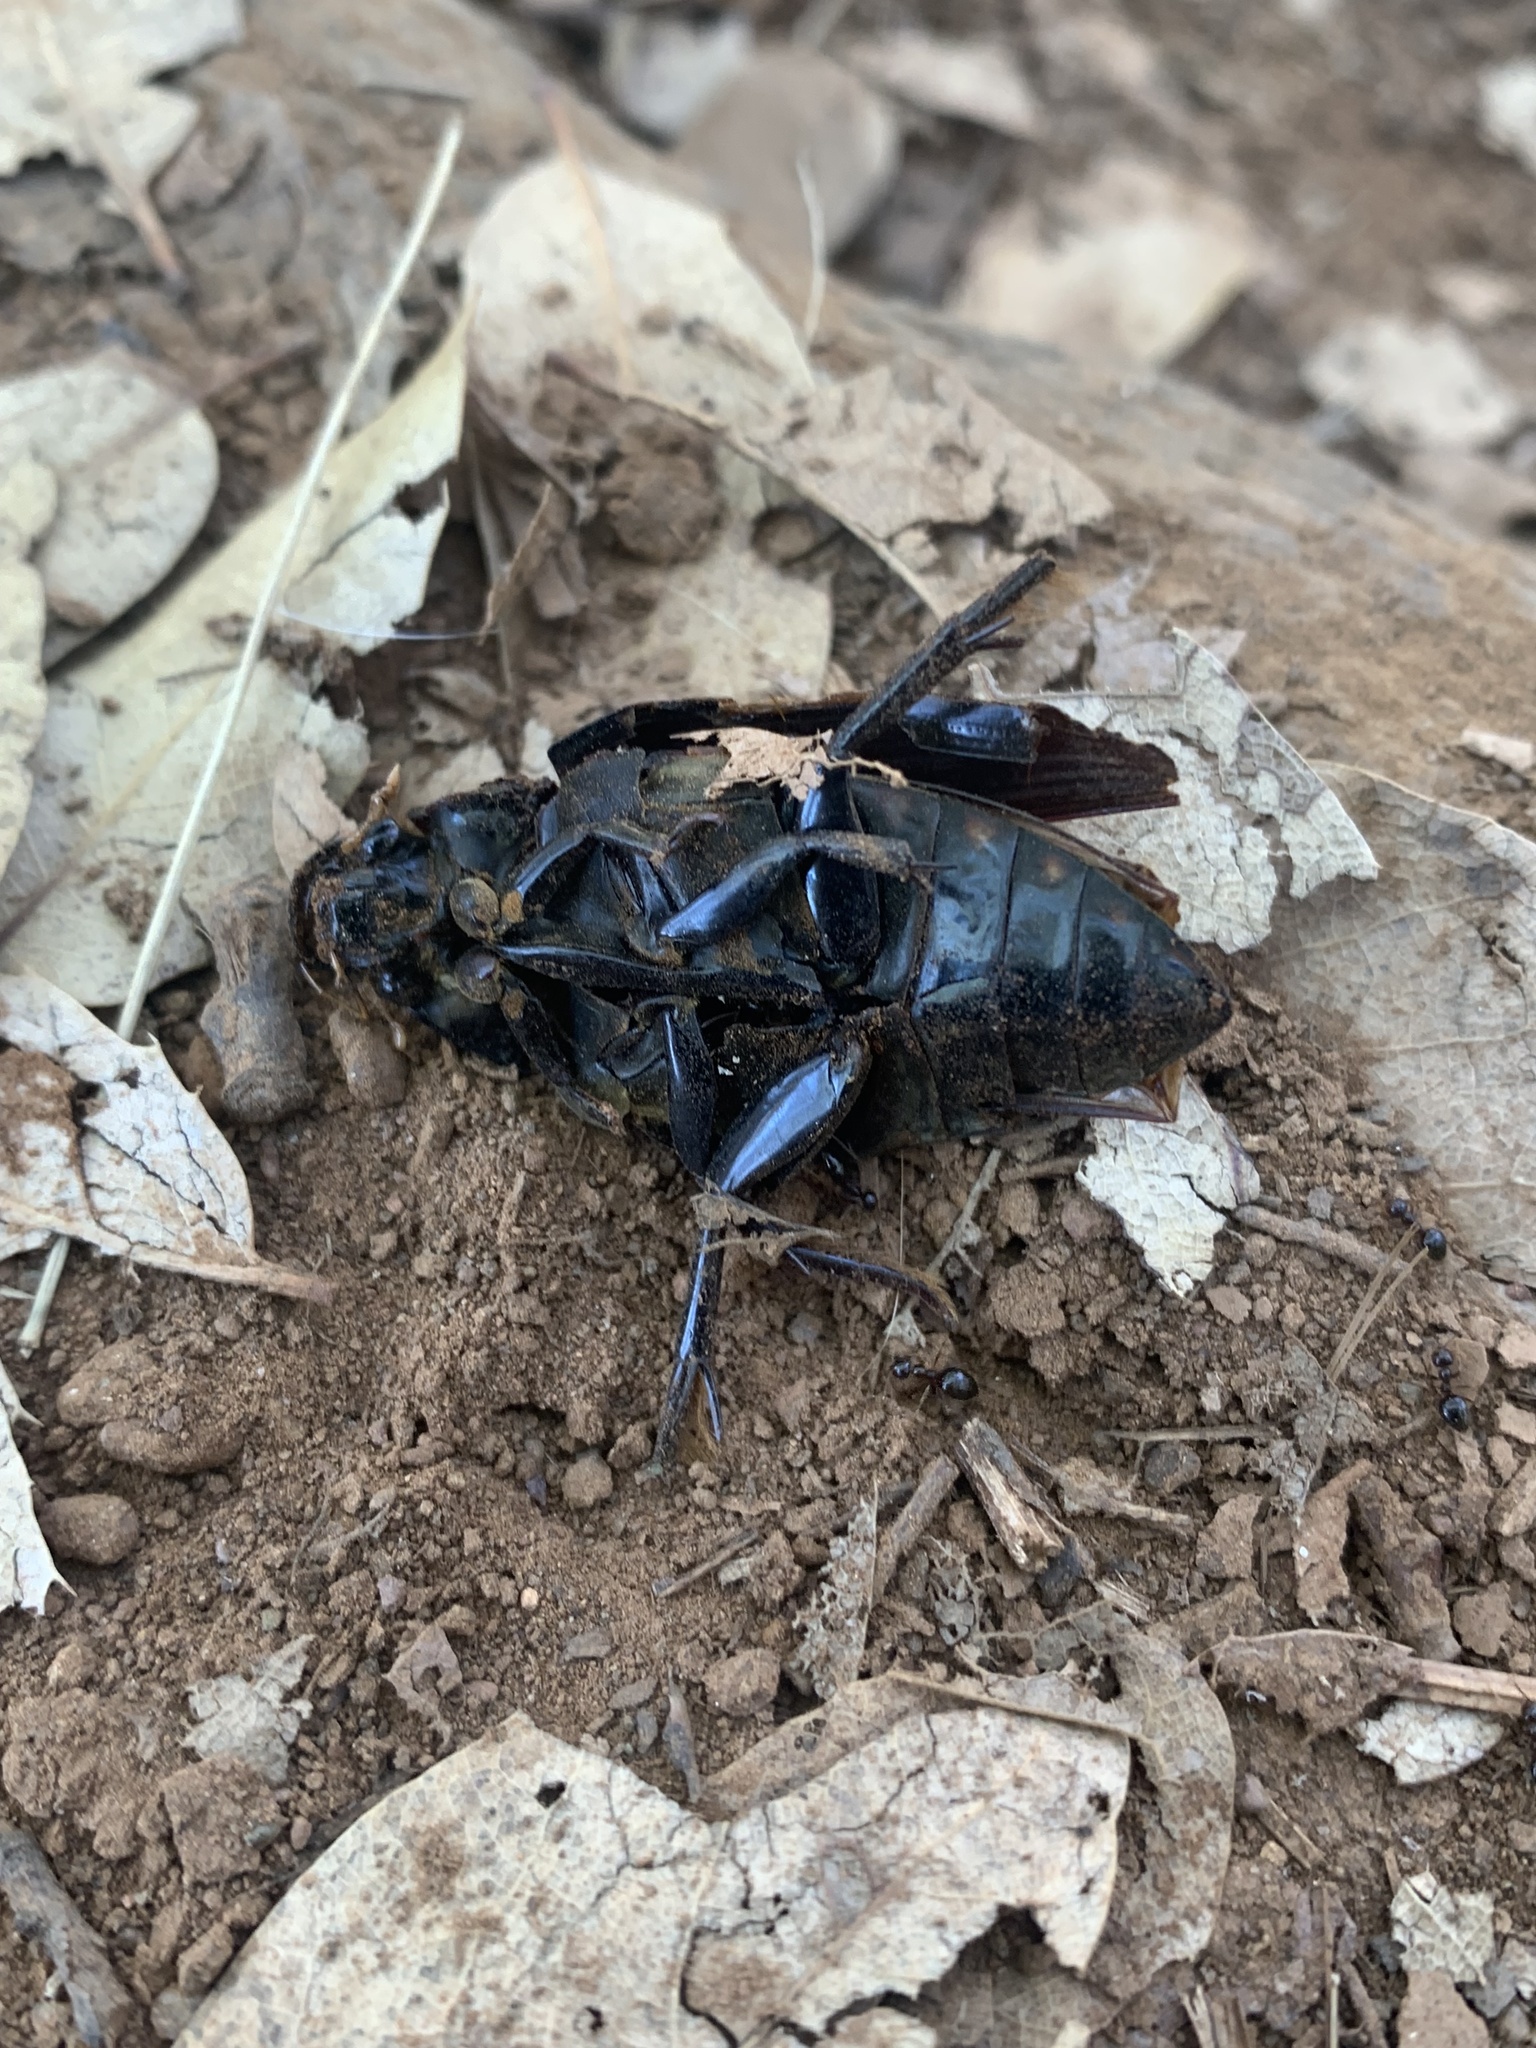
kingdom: Animalia
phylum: Arthropoda
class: Insecta
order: Coleoptera
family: Hydrophilidae
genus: Hydrophilus
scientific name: Hydrophilus triangularis
